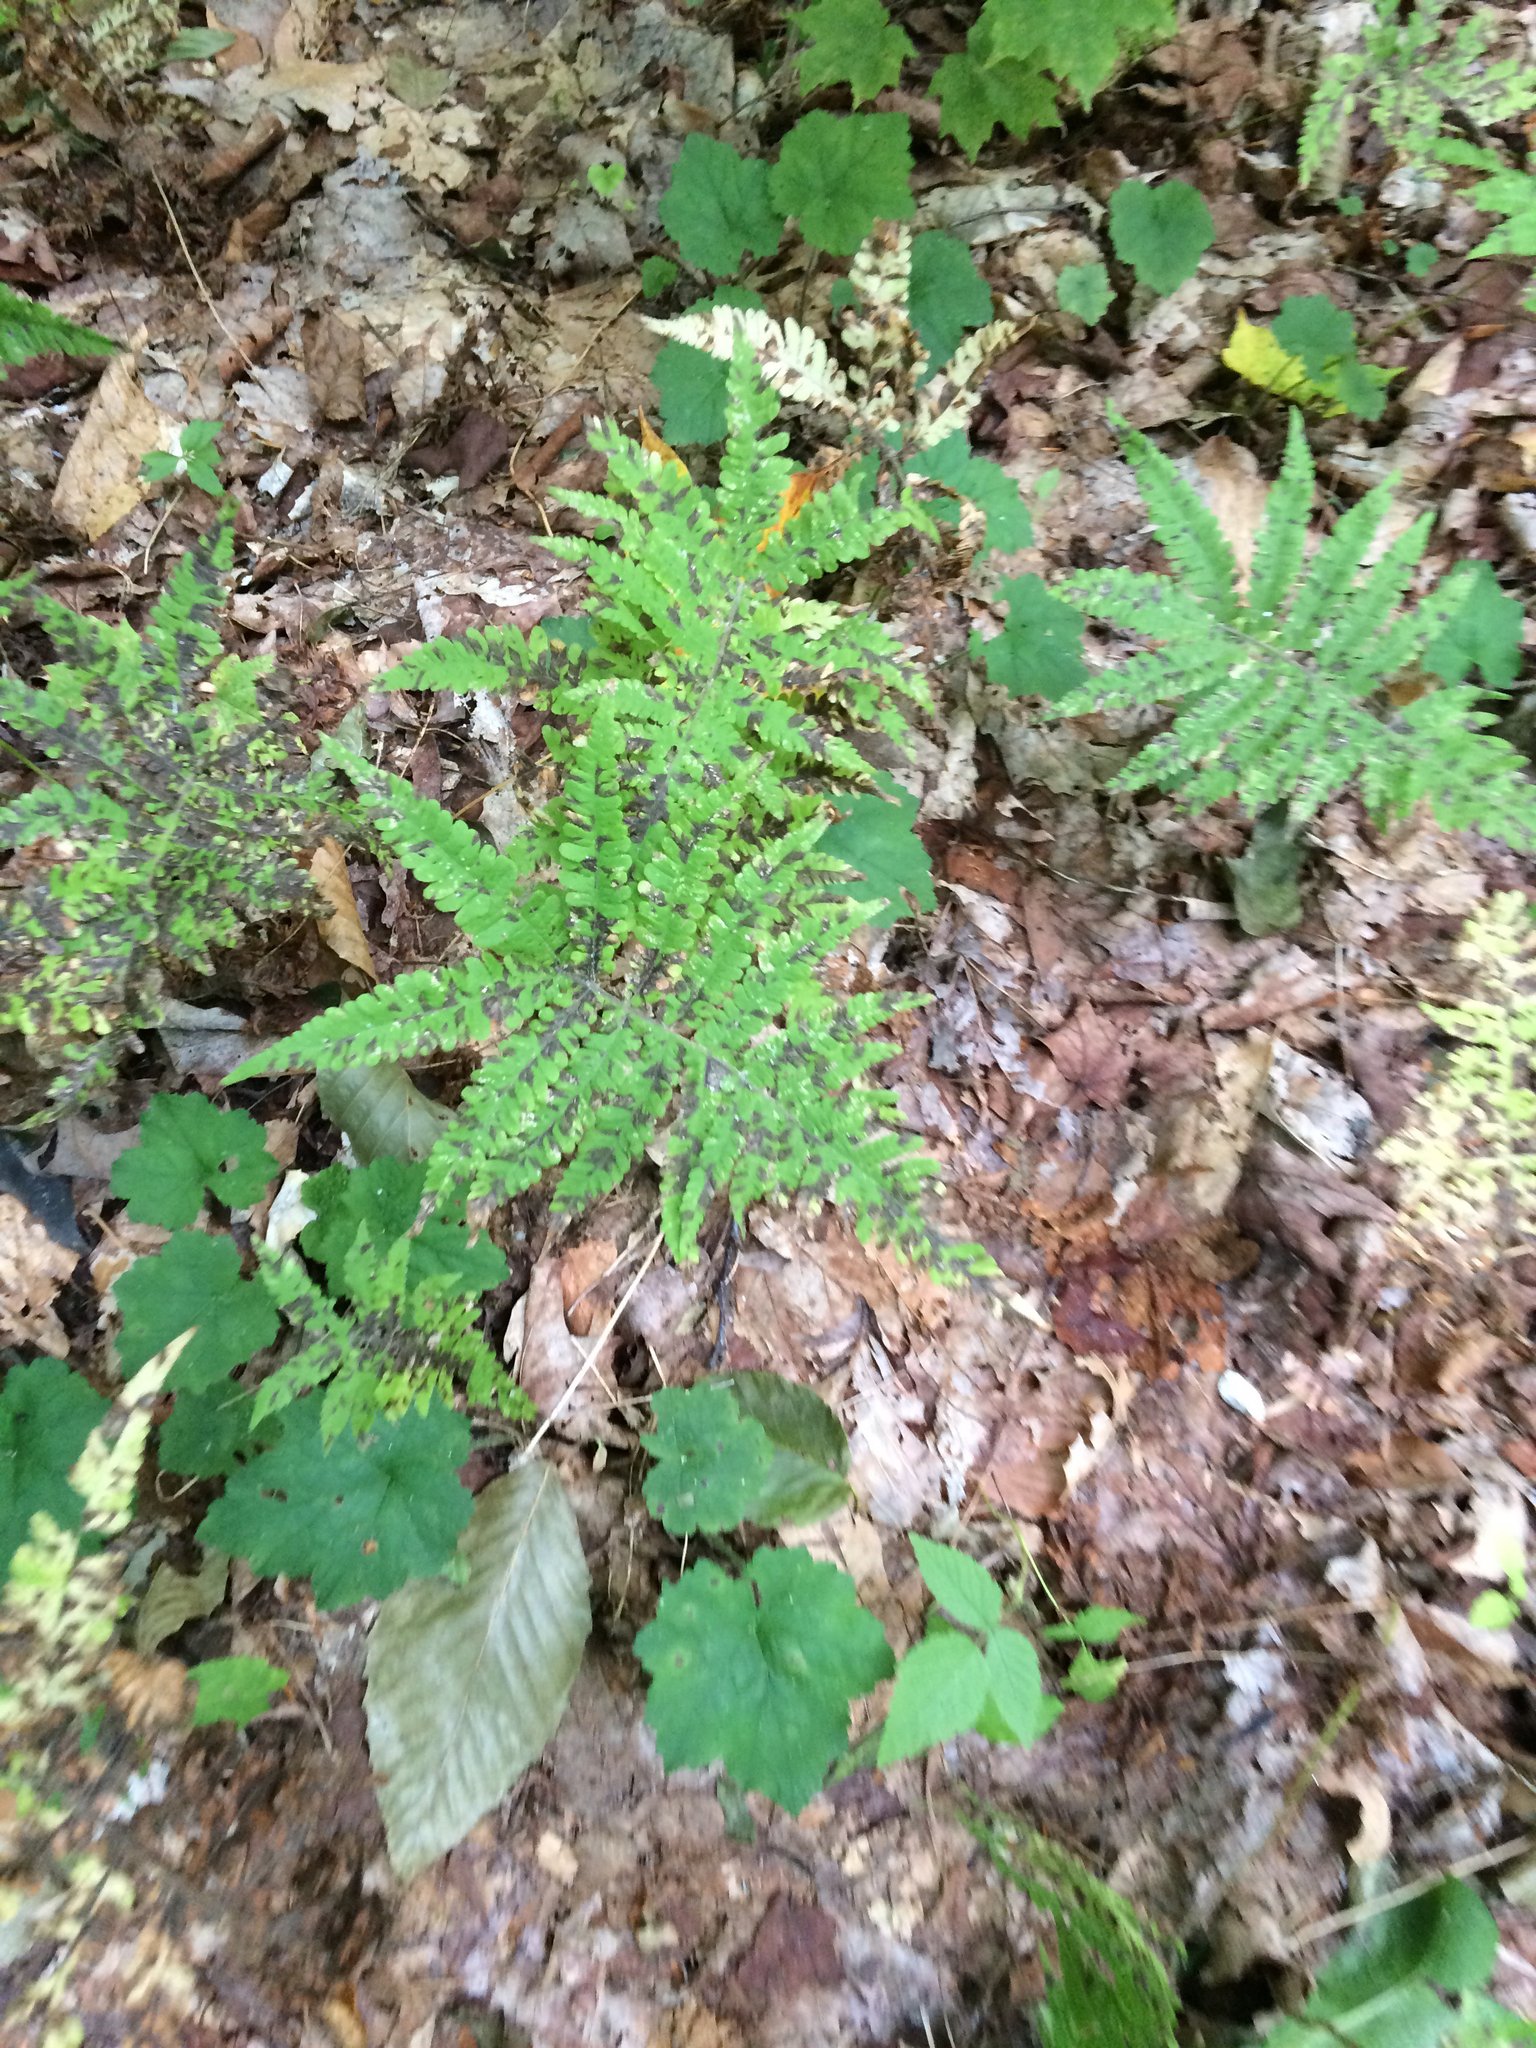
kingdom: Plantae
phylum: Tracheophyta
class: Polypodiopsida
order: Polypodiales
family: Thelypteridaceae
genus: Phegopteris
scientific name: Phegopteris connectilis
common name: Beech fern
